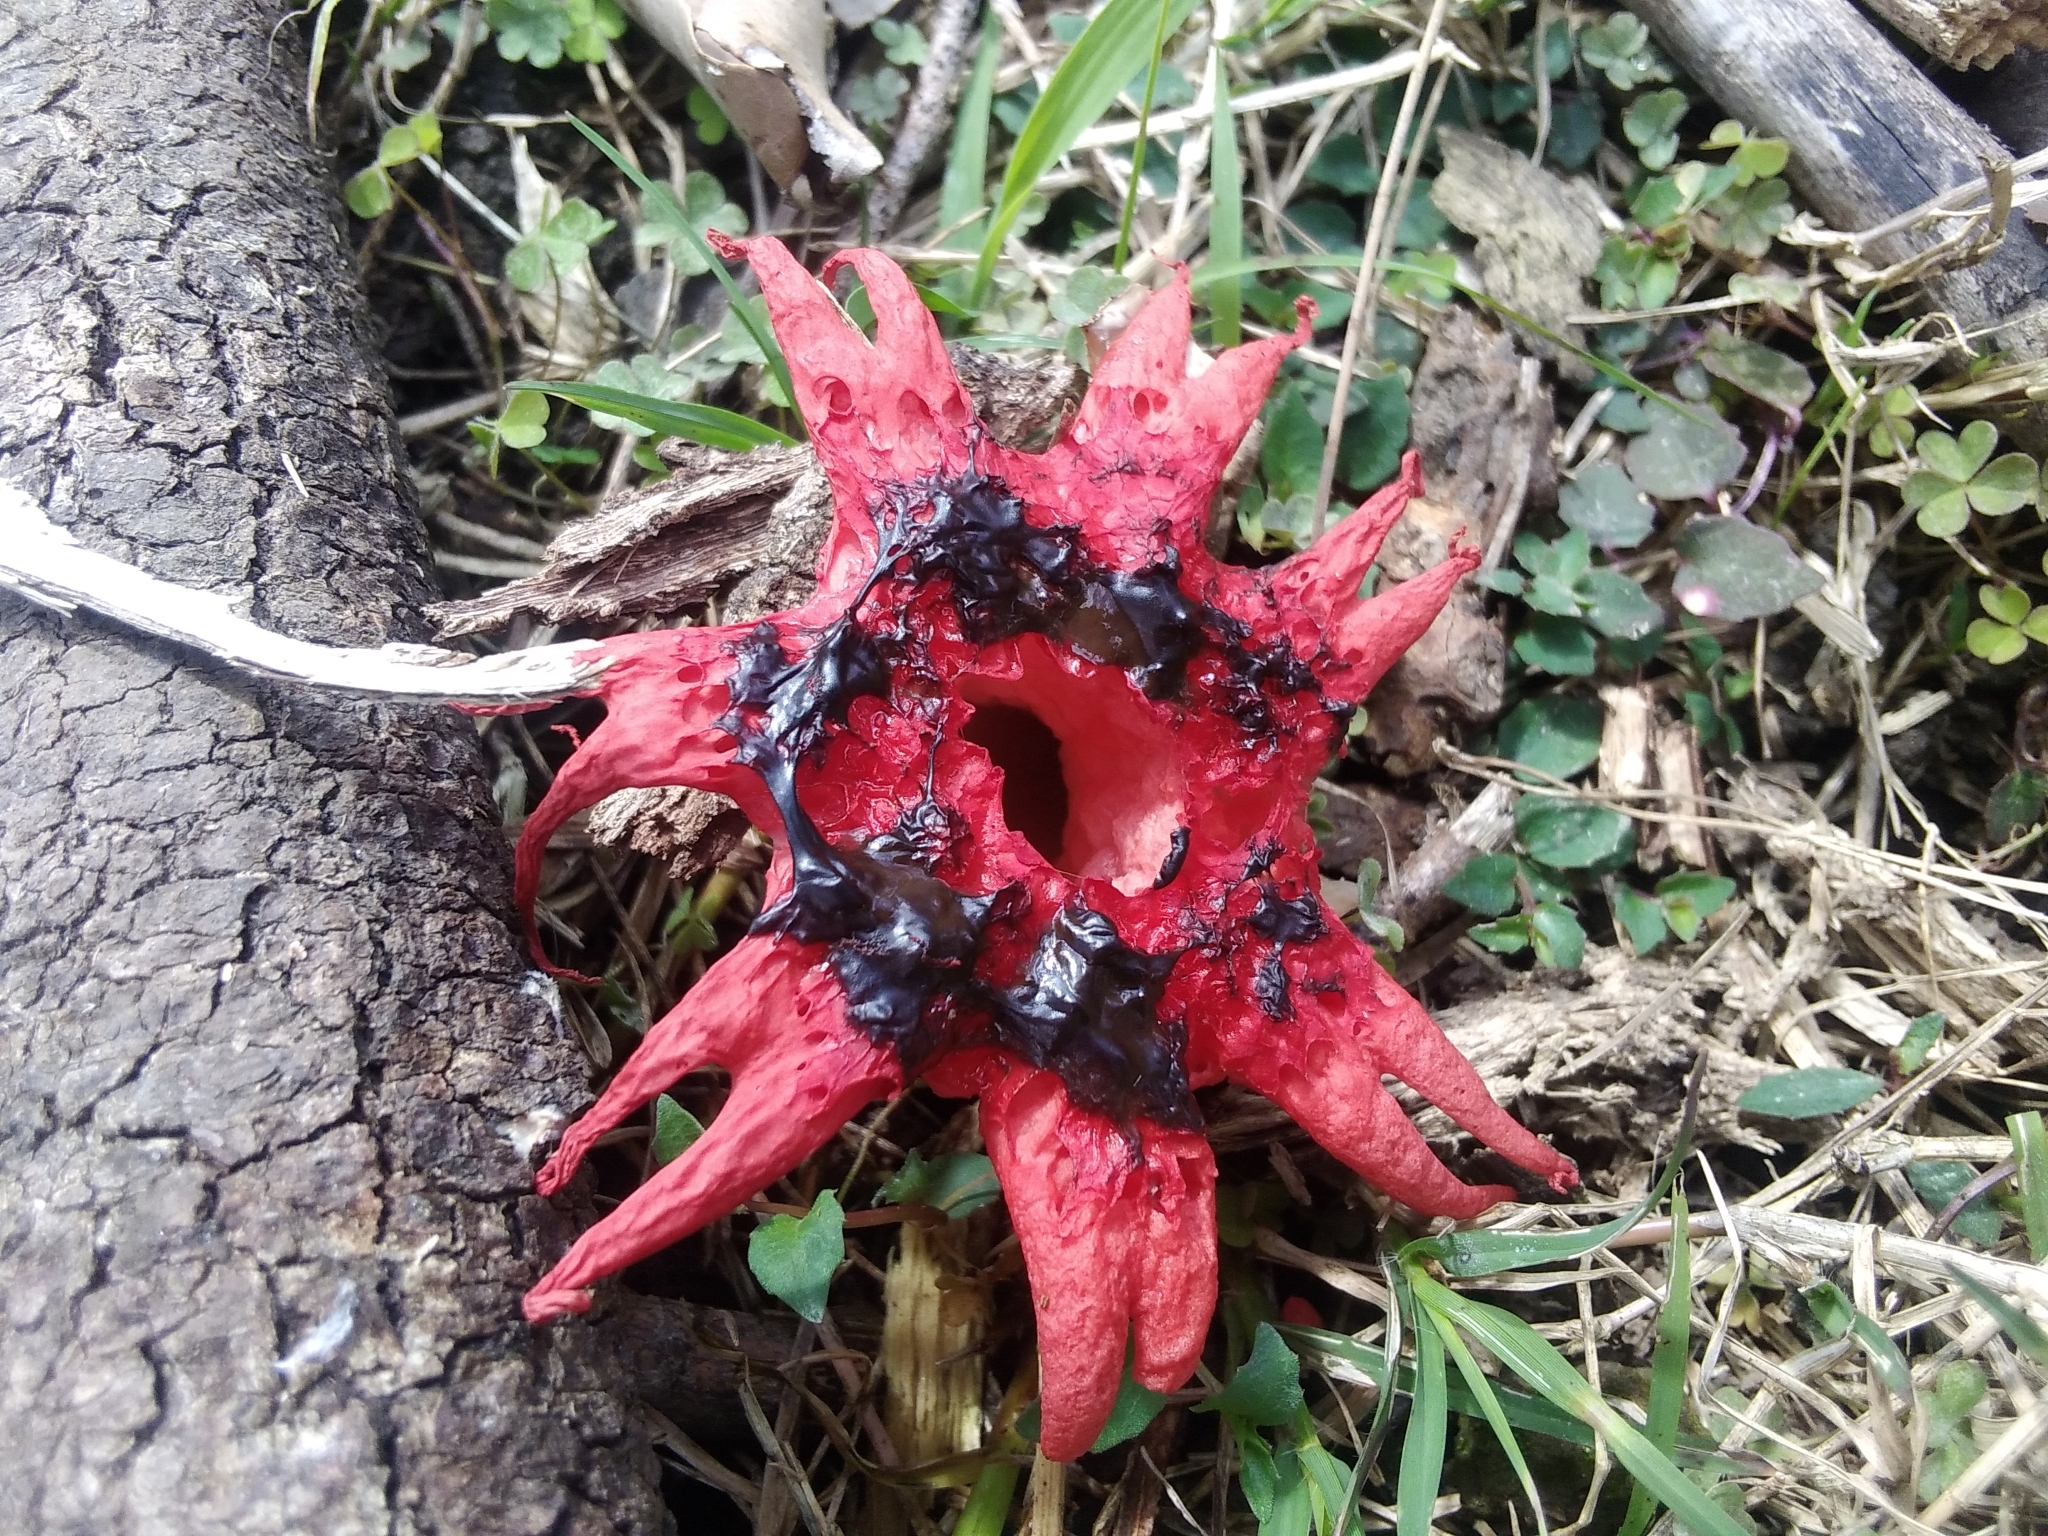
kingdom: Fungi
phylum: Basidiomycota
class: Agaricomycetes
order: Phallales
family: Phallaceae
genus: Aseroe
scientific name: Aseroe rubra
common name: Starfish fungus
